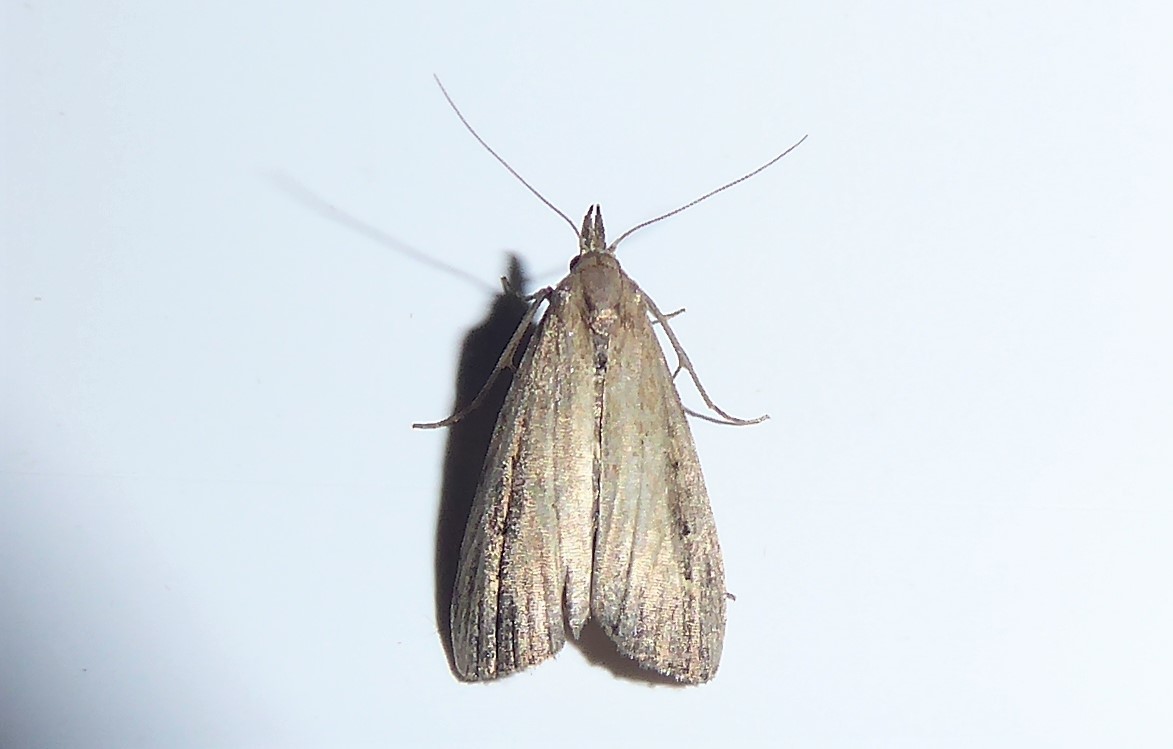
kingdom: Animalia
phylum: Arthropoda
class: Insecta
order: Lepidoptera
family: Erebidae
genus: Schrankia
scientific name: Schrankia costaestrigalis
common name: Pinion-streaked snout
